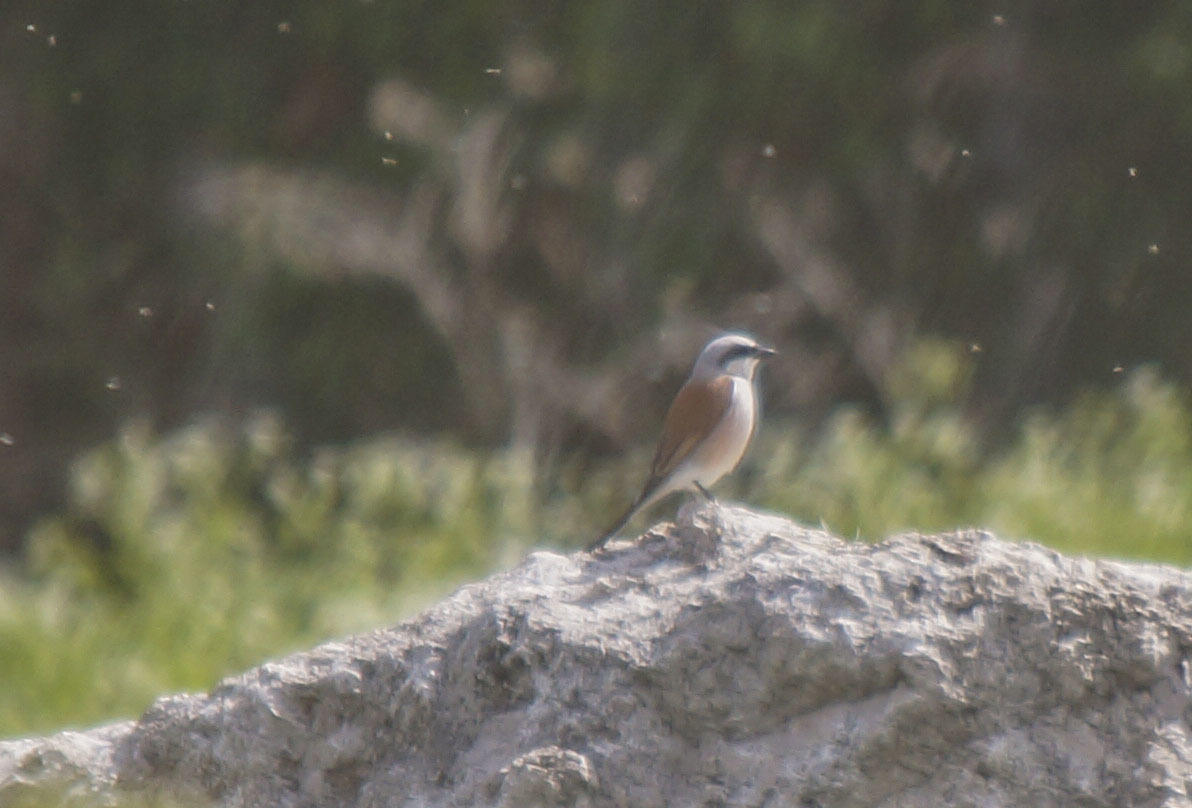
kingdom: Animalia
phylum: Chordata
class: Aves
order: Passeriformes
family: Laniidae
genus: Lanius
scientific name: Lanius collurio
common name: Red-backed shrike
